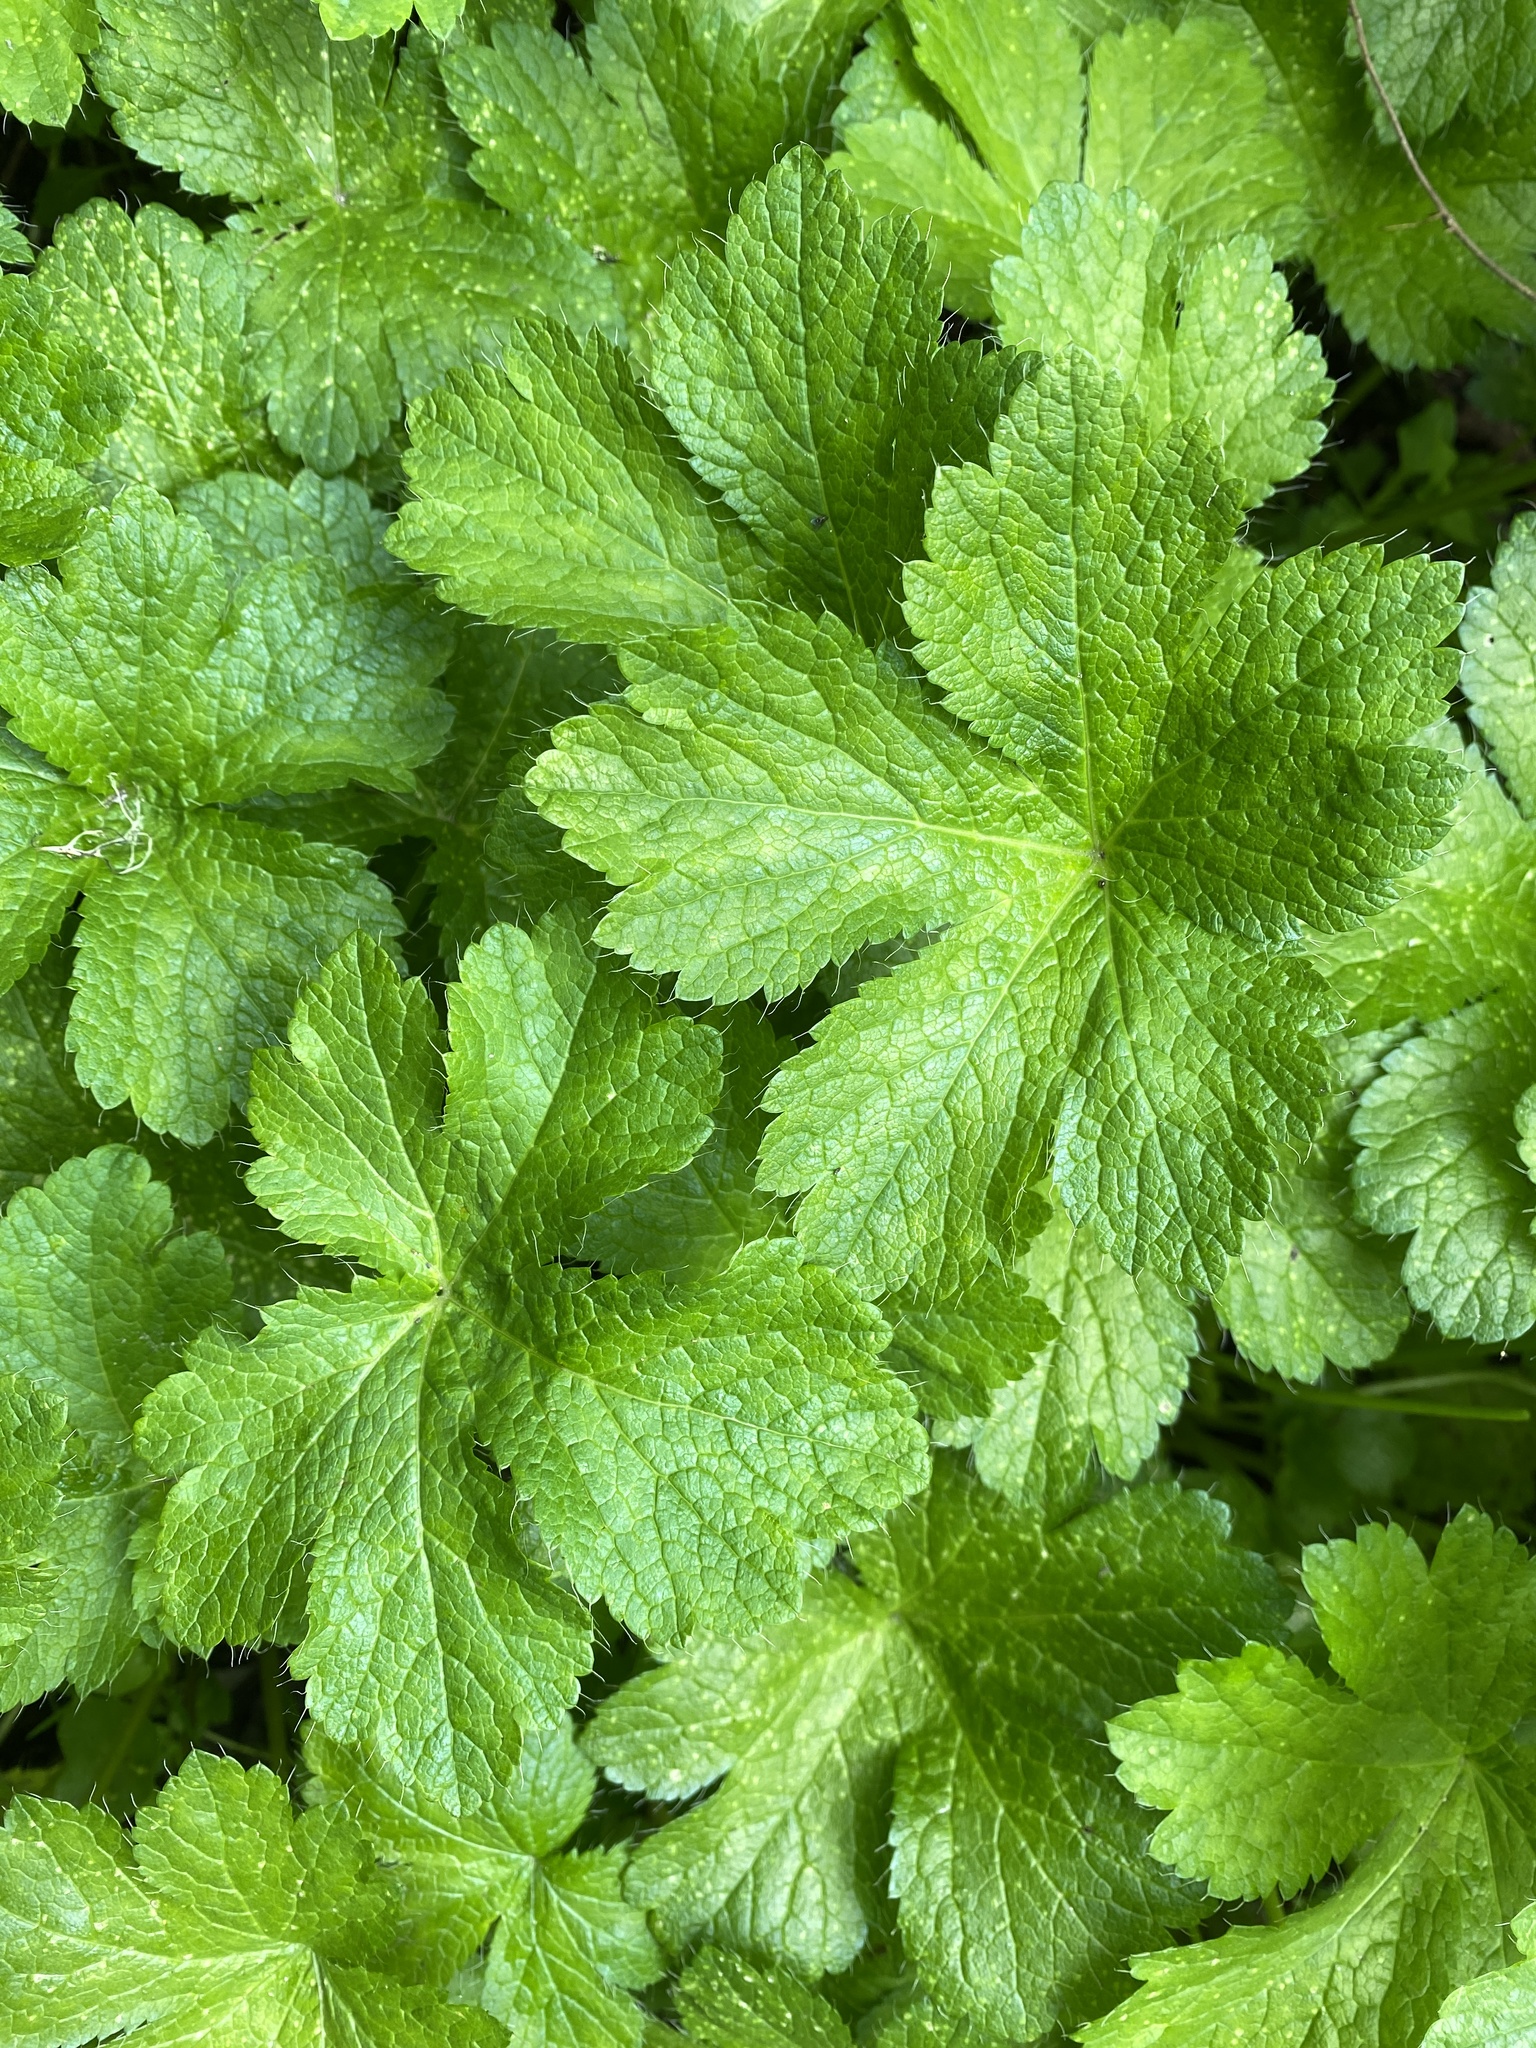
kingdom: Plantae
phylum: Tracheophyta
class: Magnoliopsida
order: Apiales
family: Apiaceae
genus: Sanicula
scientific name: Sanicula crassicaulis
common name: Western snakeroot
